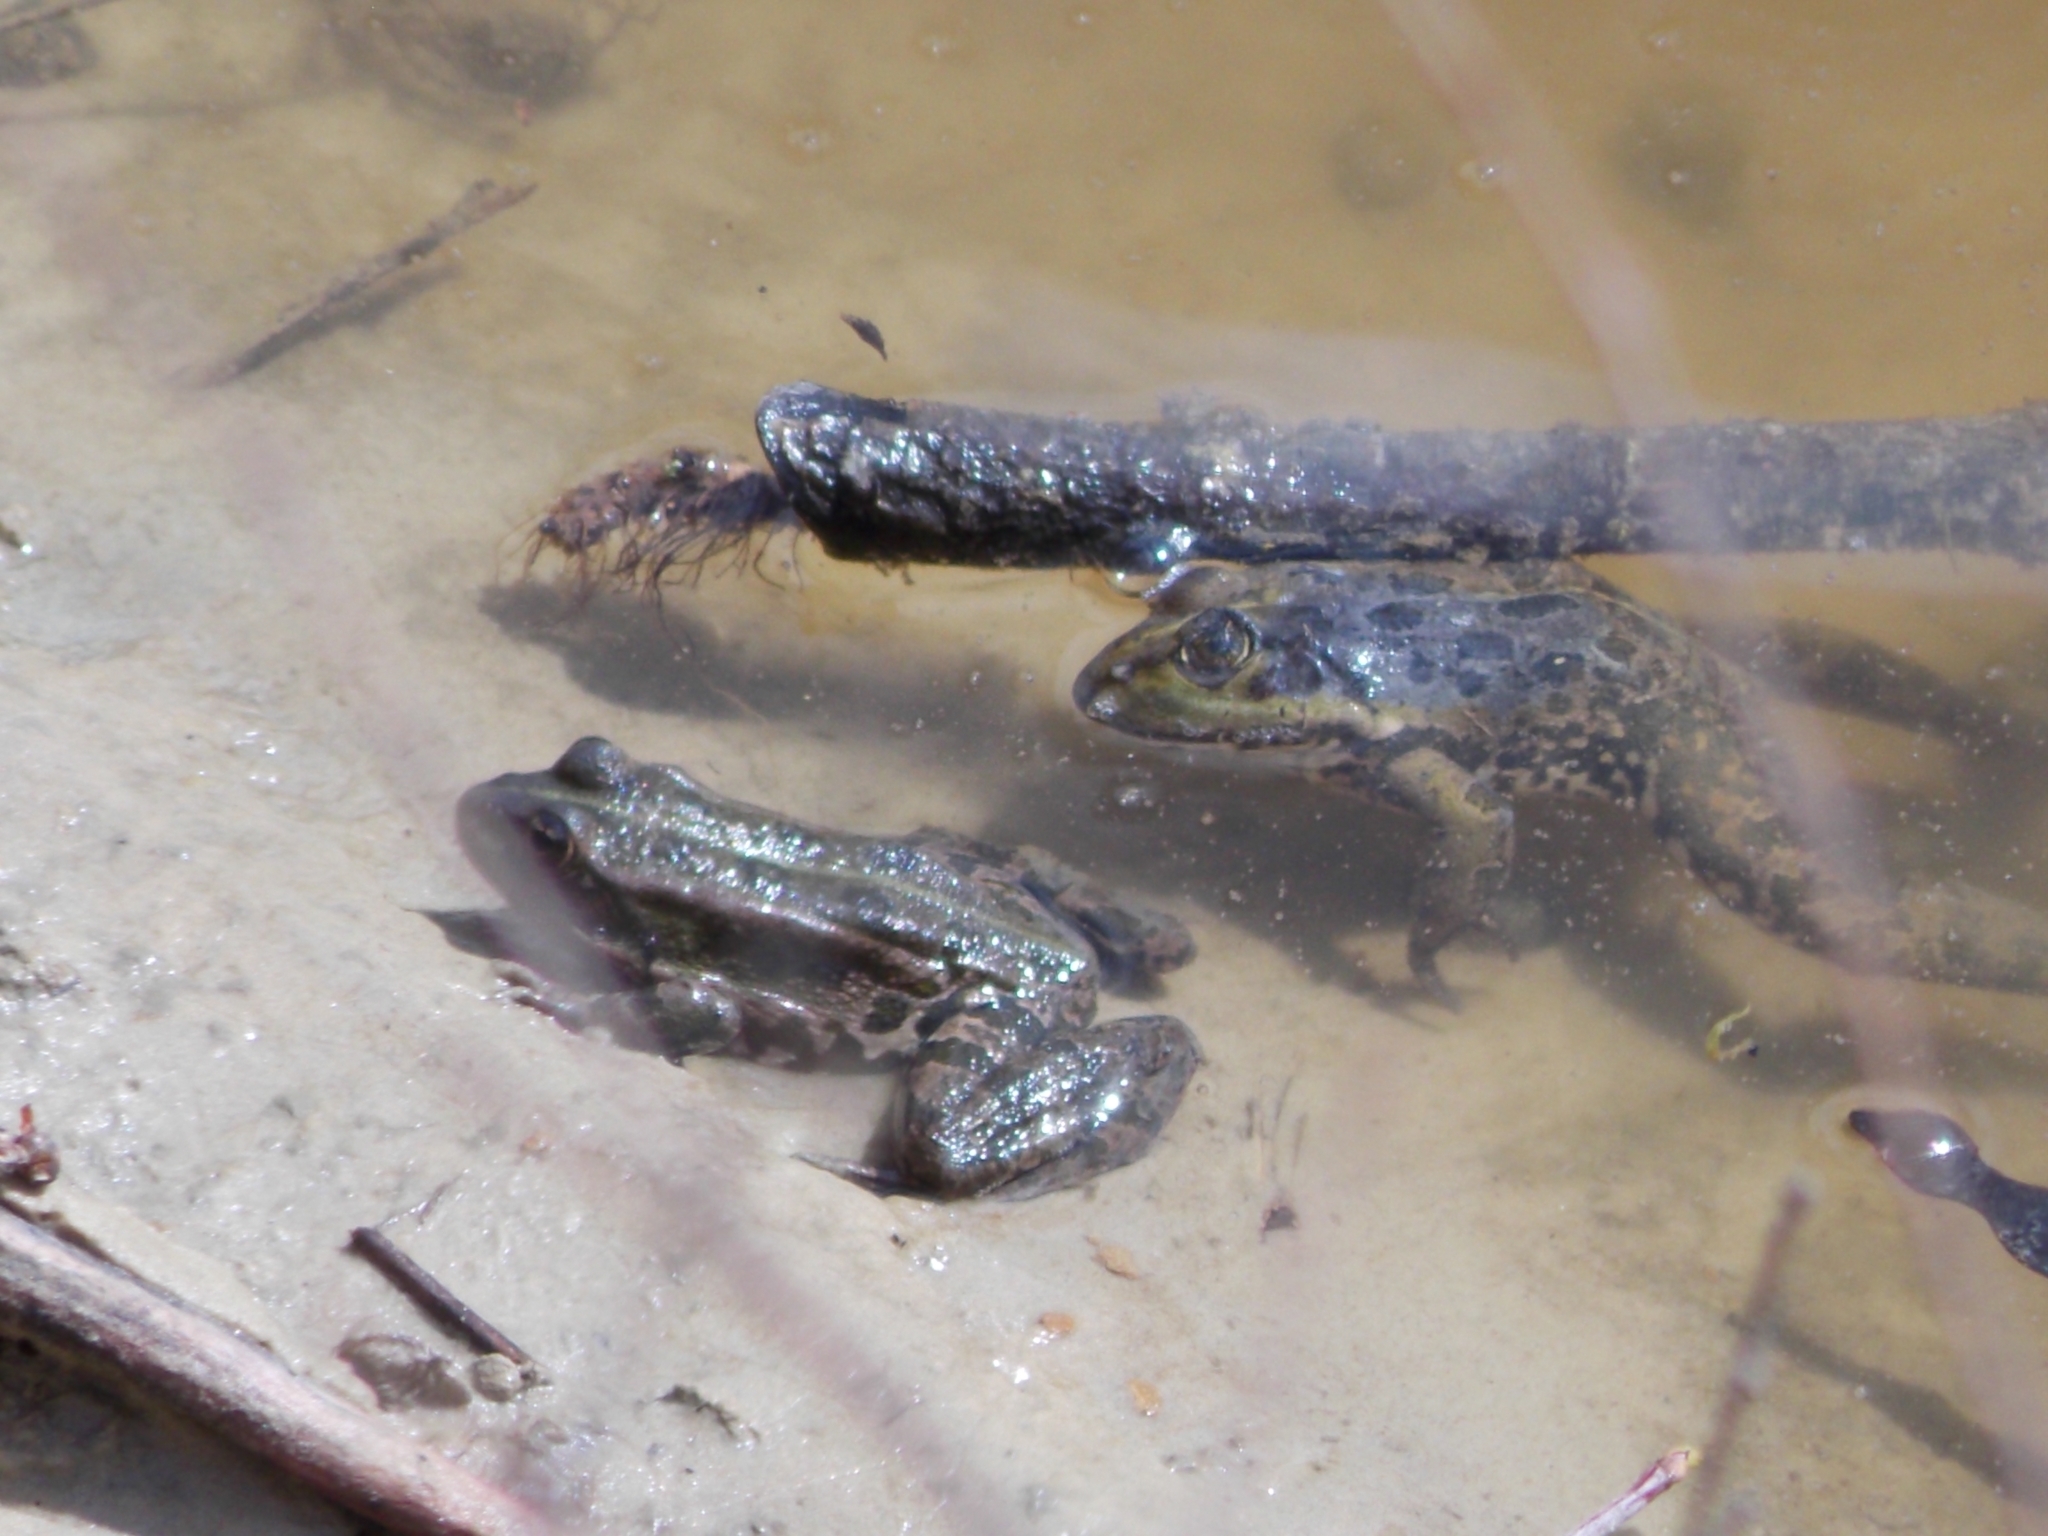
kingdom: Animalia
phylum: Chordata
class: Amphibia
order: Anura
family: Ranidae
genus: Pelophylax
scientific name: Pelophylax ridibundus
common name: Marsh frog
